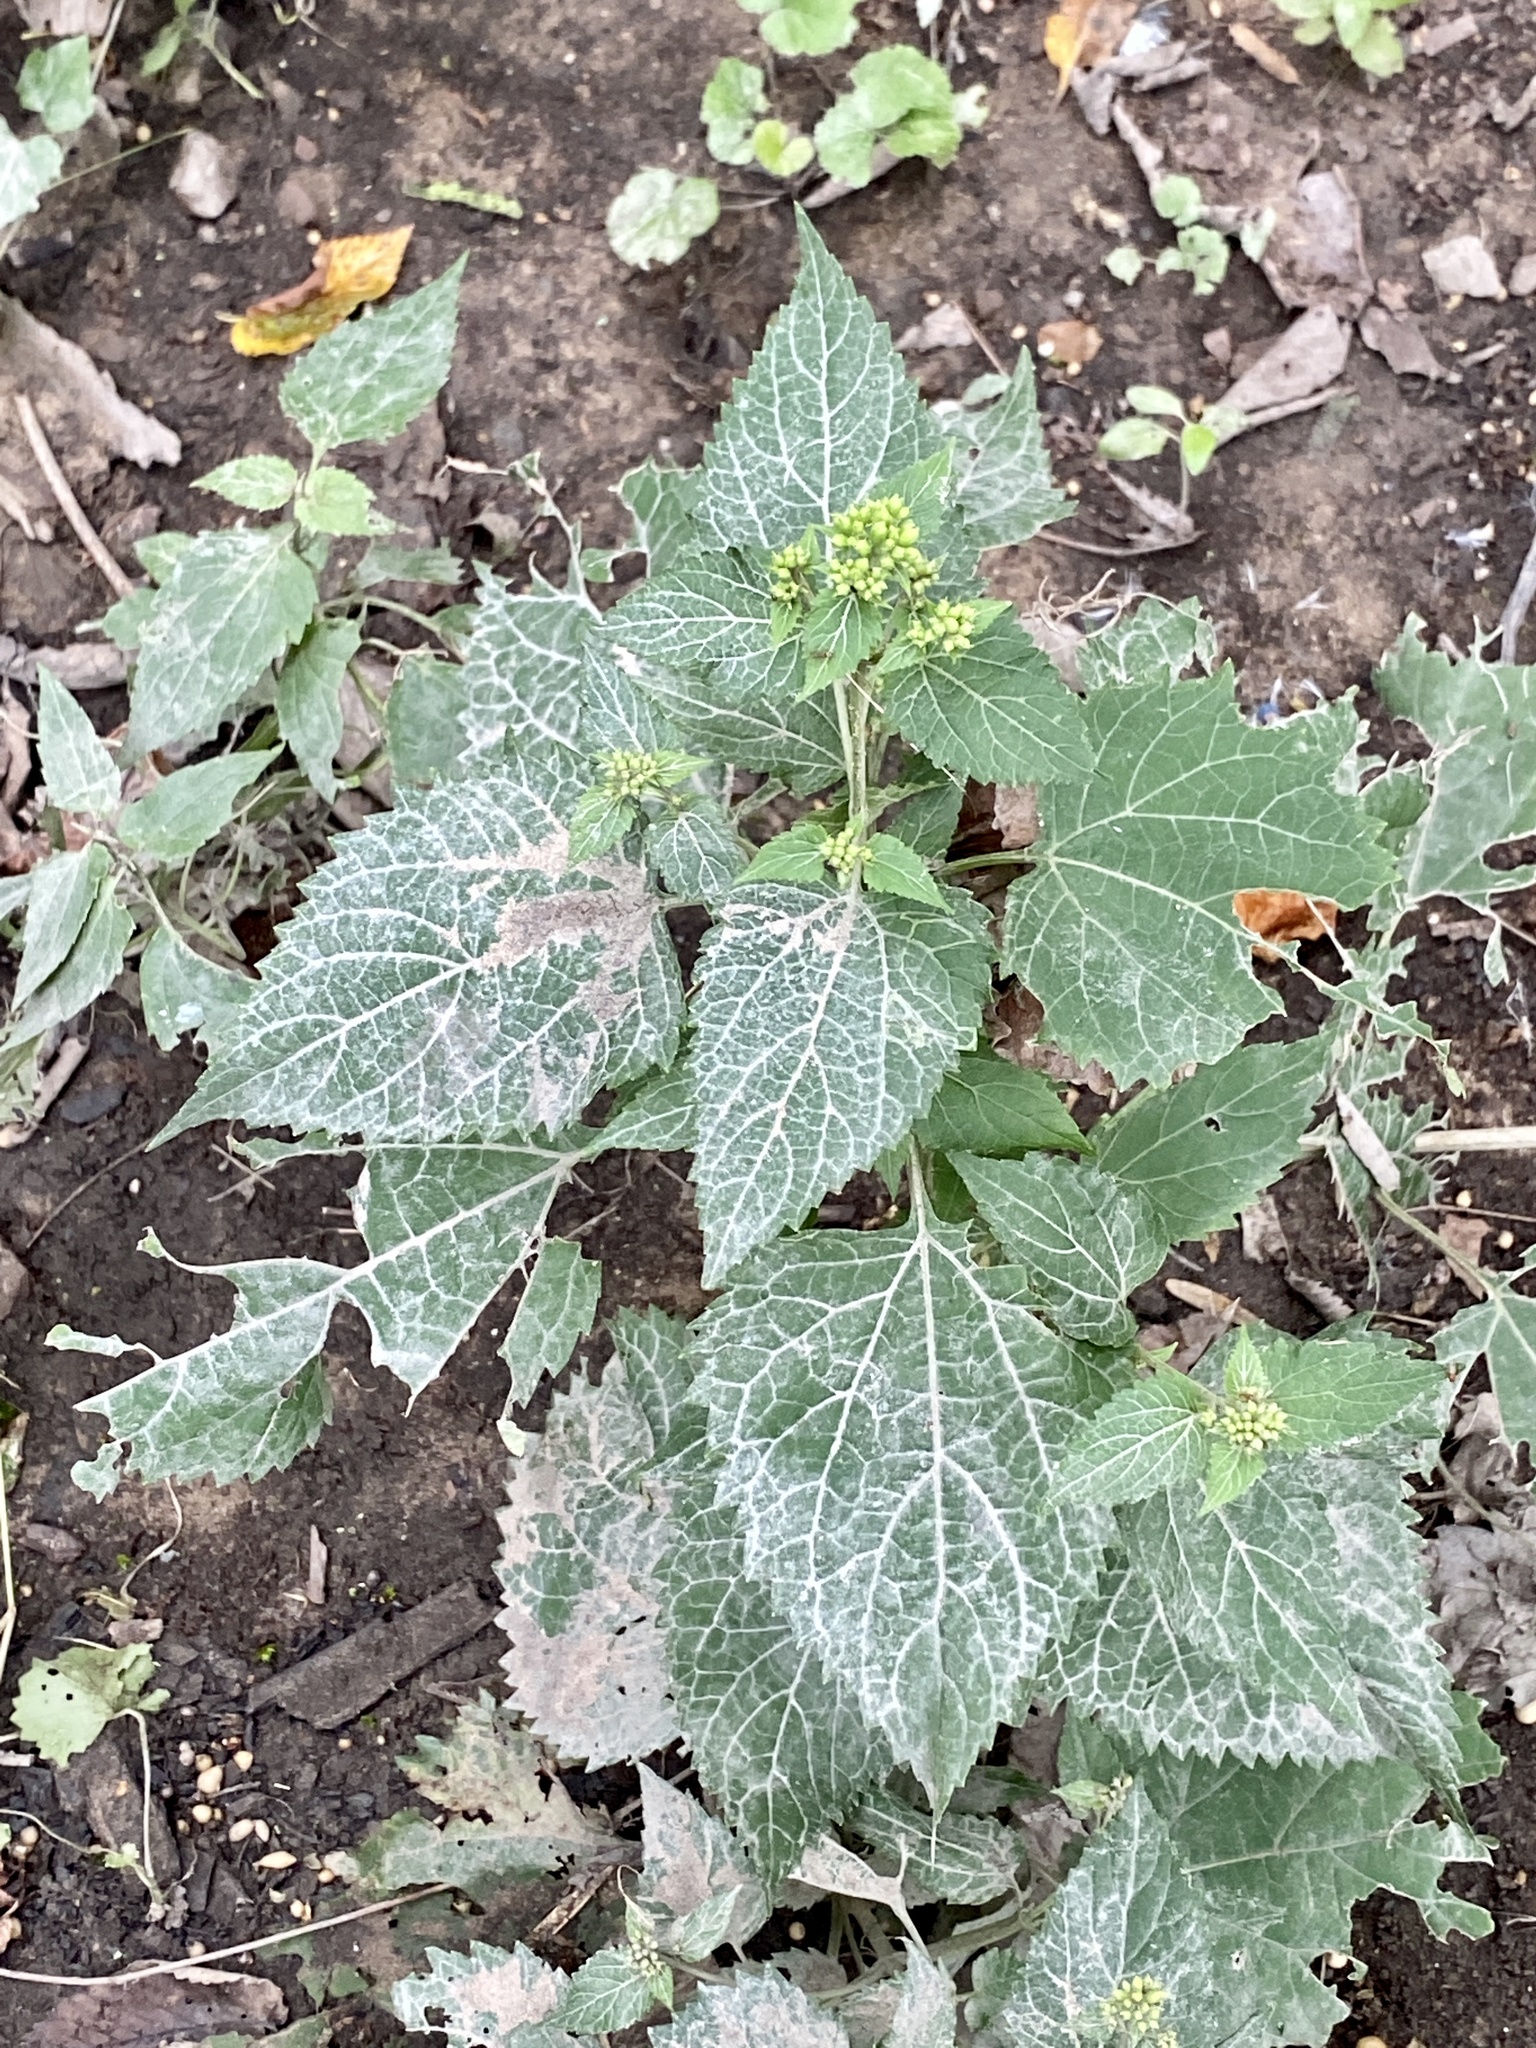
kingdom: Plantae
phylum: Tracheophyta
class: Magnoliopsida
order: Asterales
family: Asteraceae
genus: Ageratina
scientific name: Ageratina altissima
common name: White snakeroot
